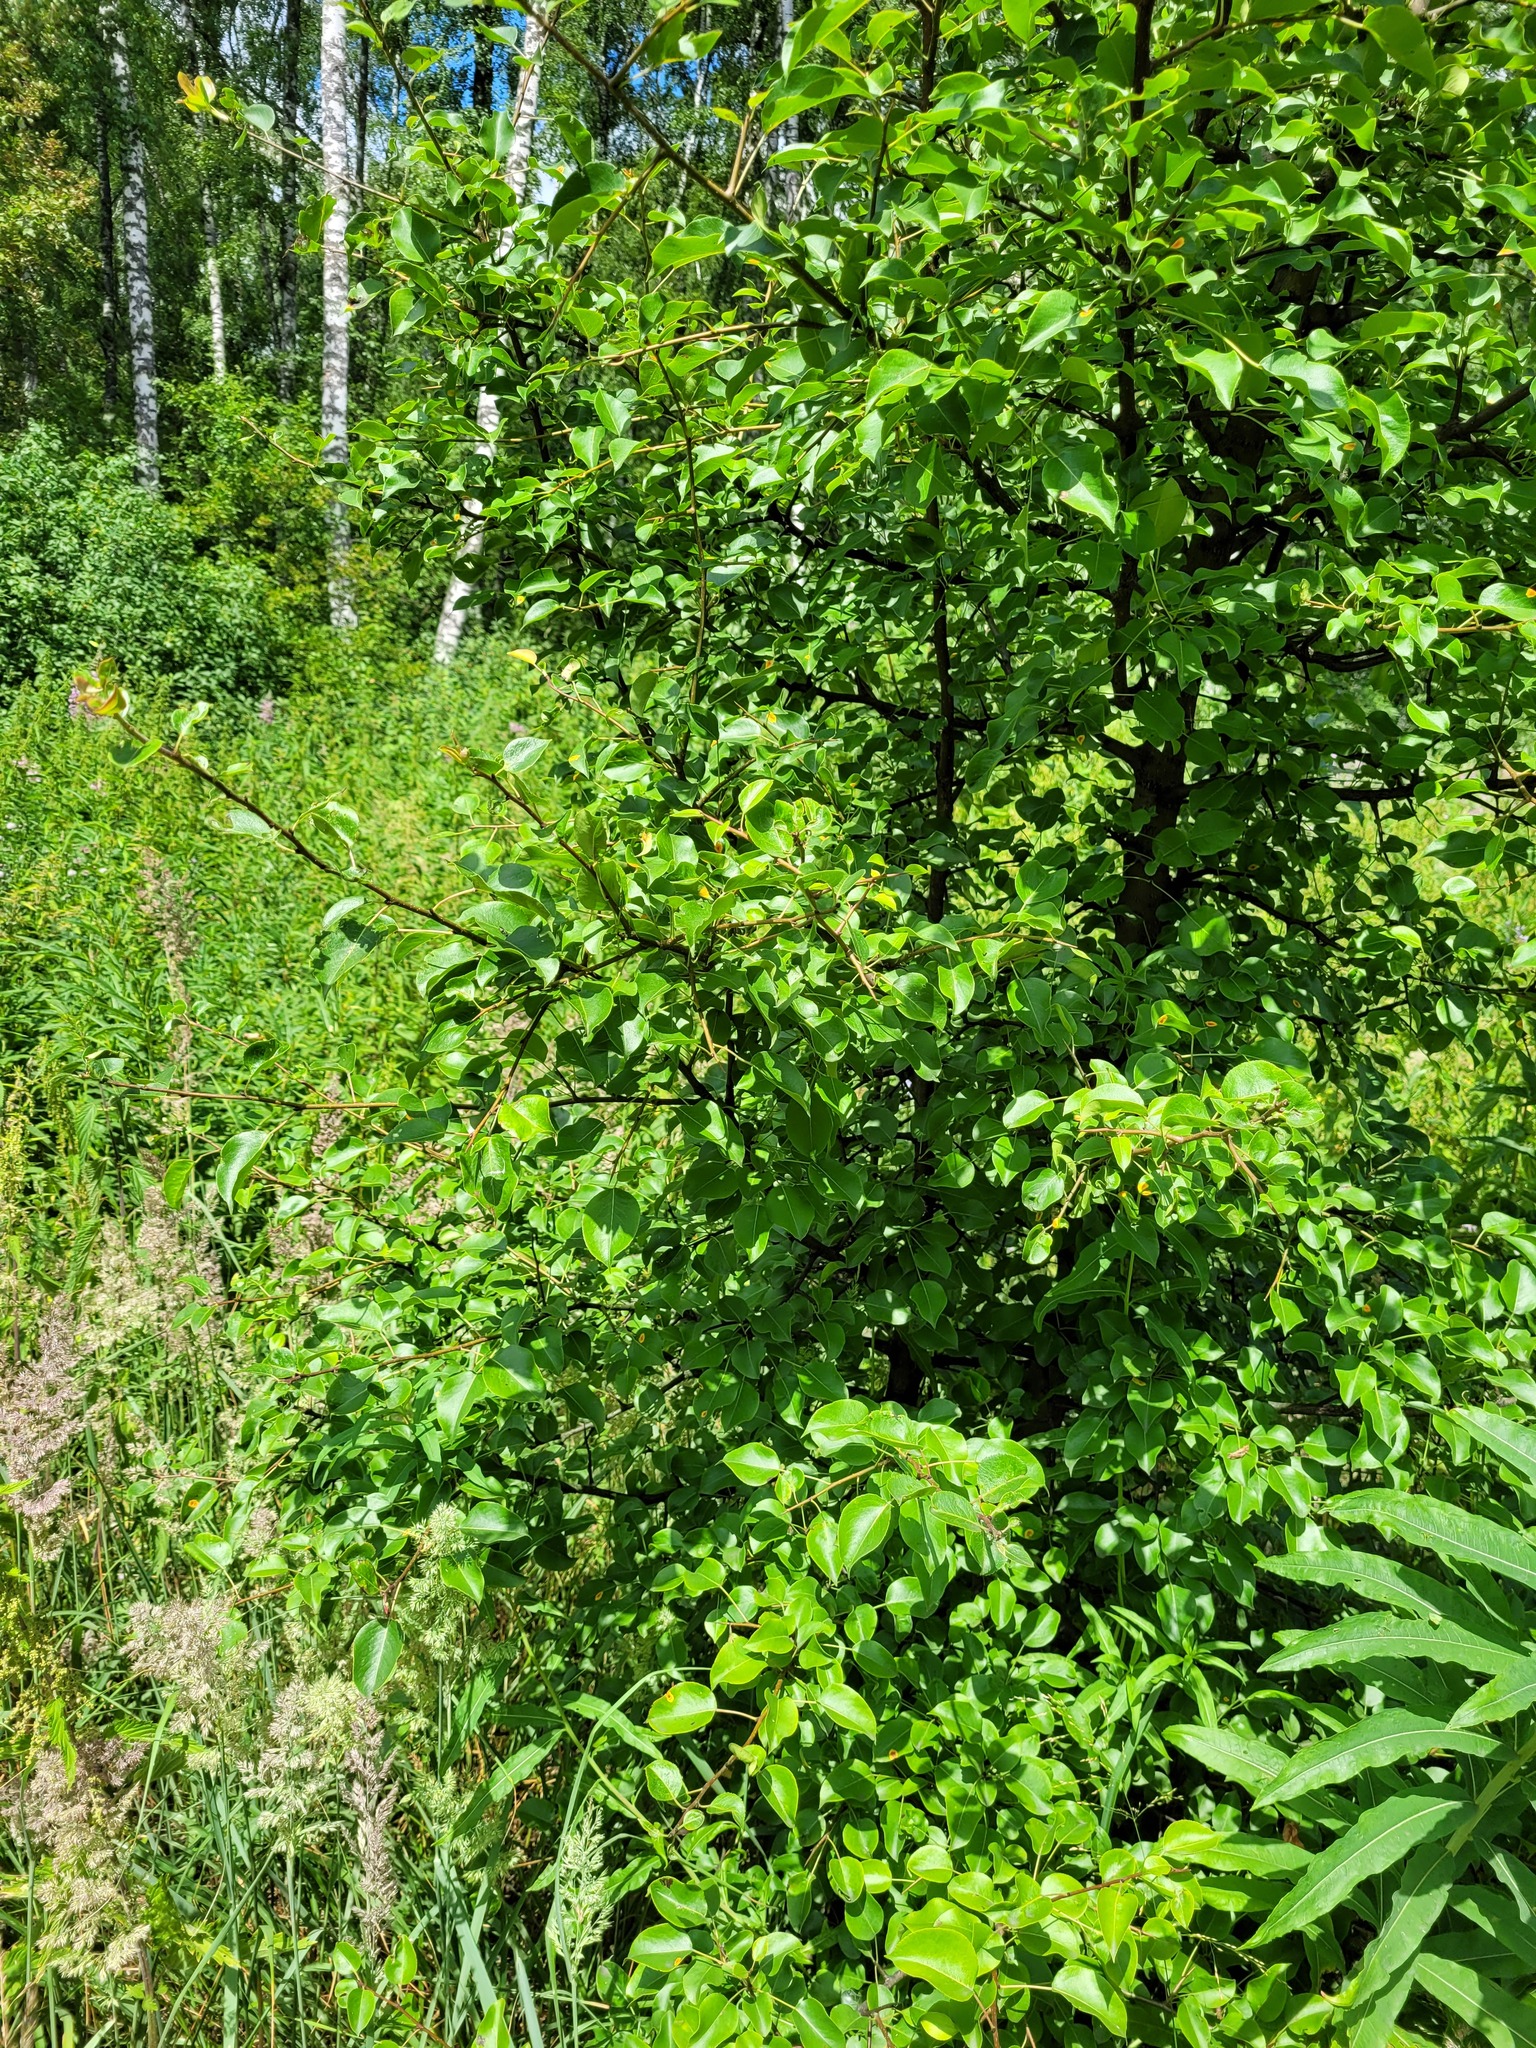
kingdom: Plantae
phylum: Tracheophyta
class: Magnoliopsida
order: Rosales
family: Rosaceae
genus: Pyrus
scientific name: Pyrus communis
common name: Pear
